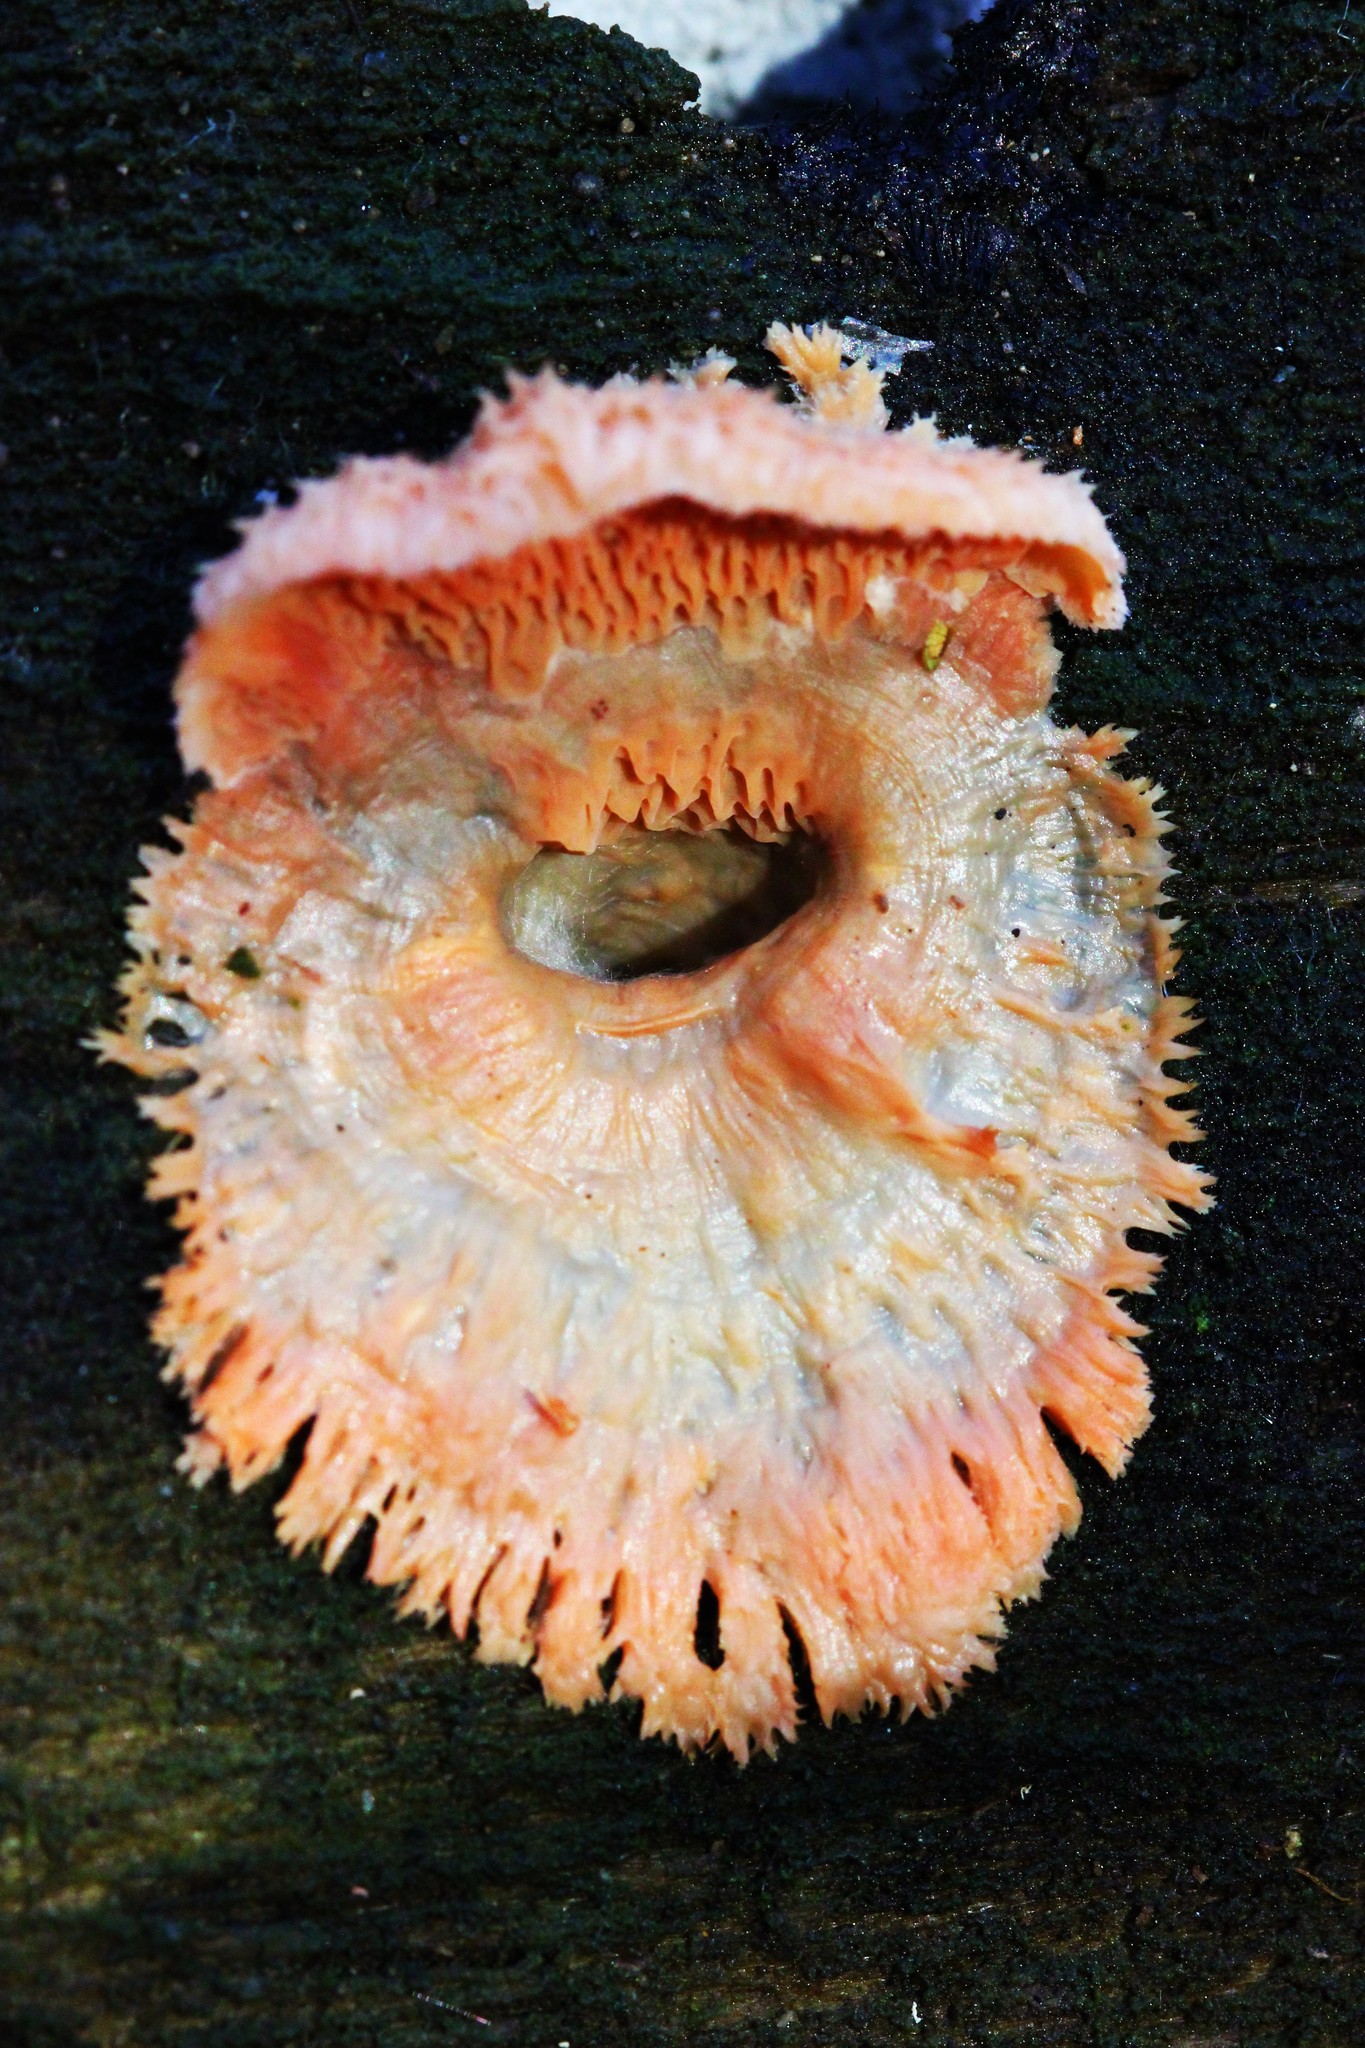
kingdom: Fungi
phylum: Basidiomycota
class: Agaricomycetes
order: Polyporales
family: Meruliaceae
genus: Phlebia
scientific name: Phlebia tremellosa
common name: Jelly rot
